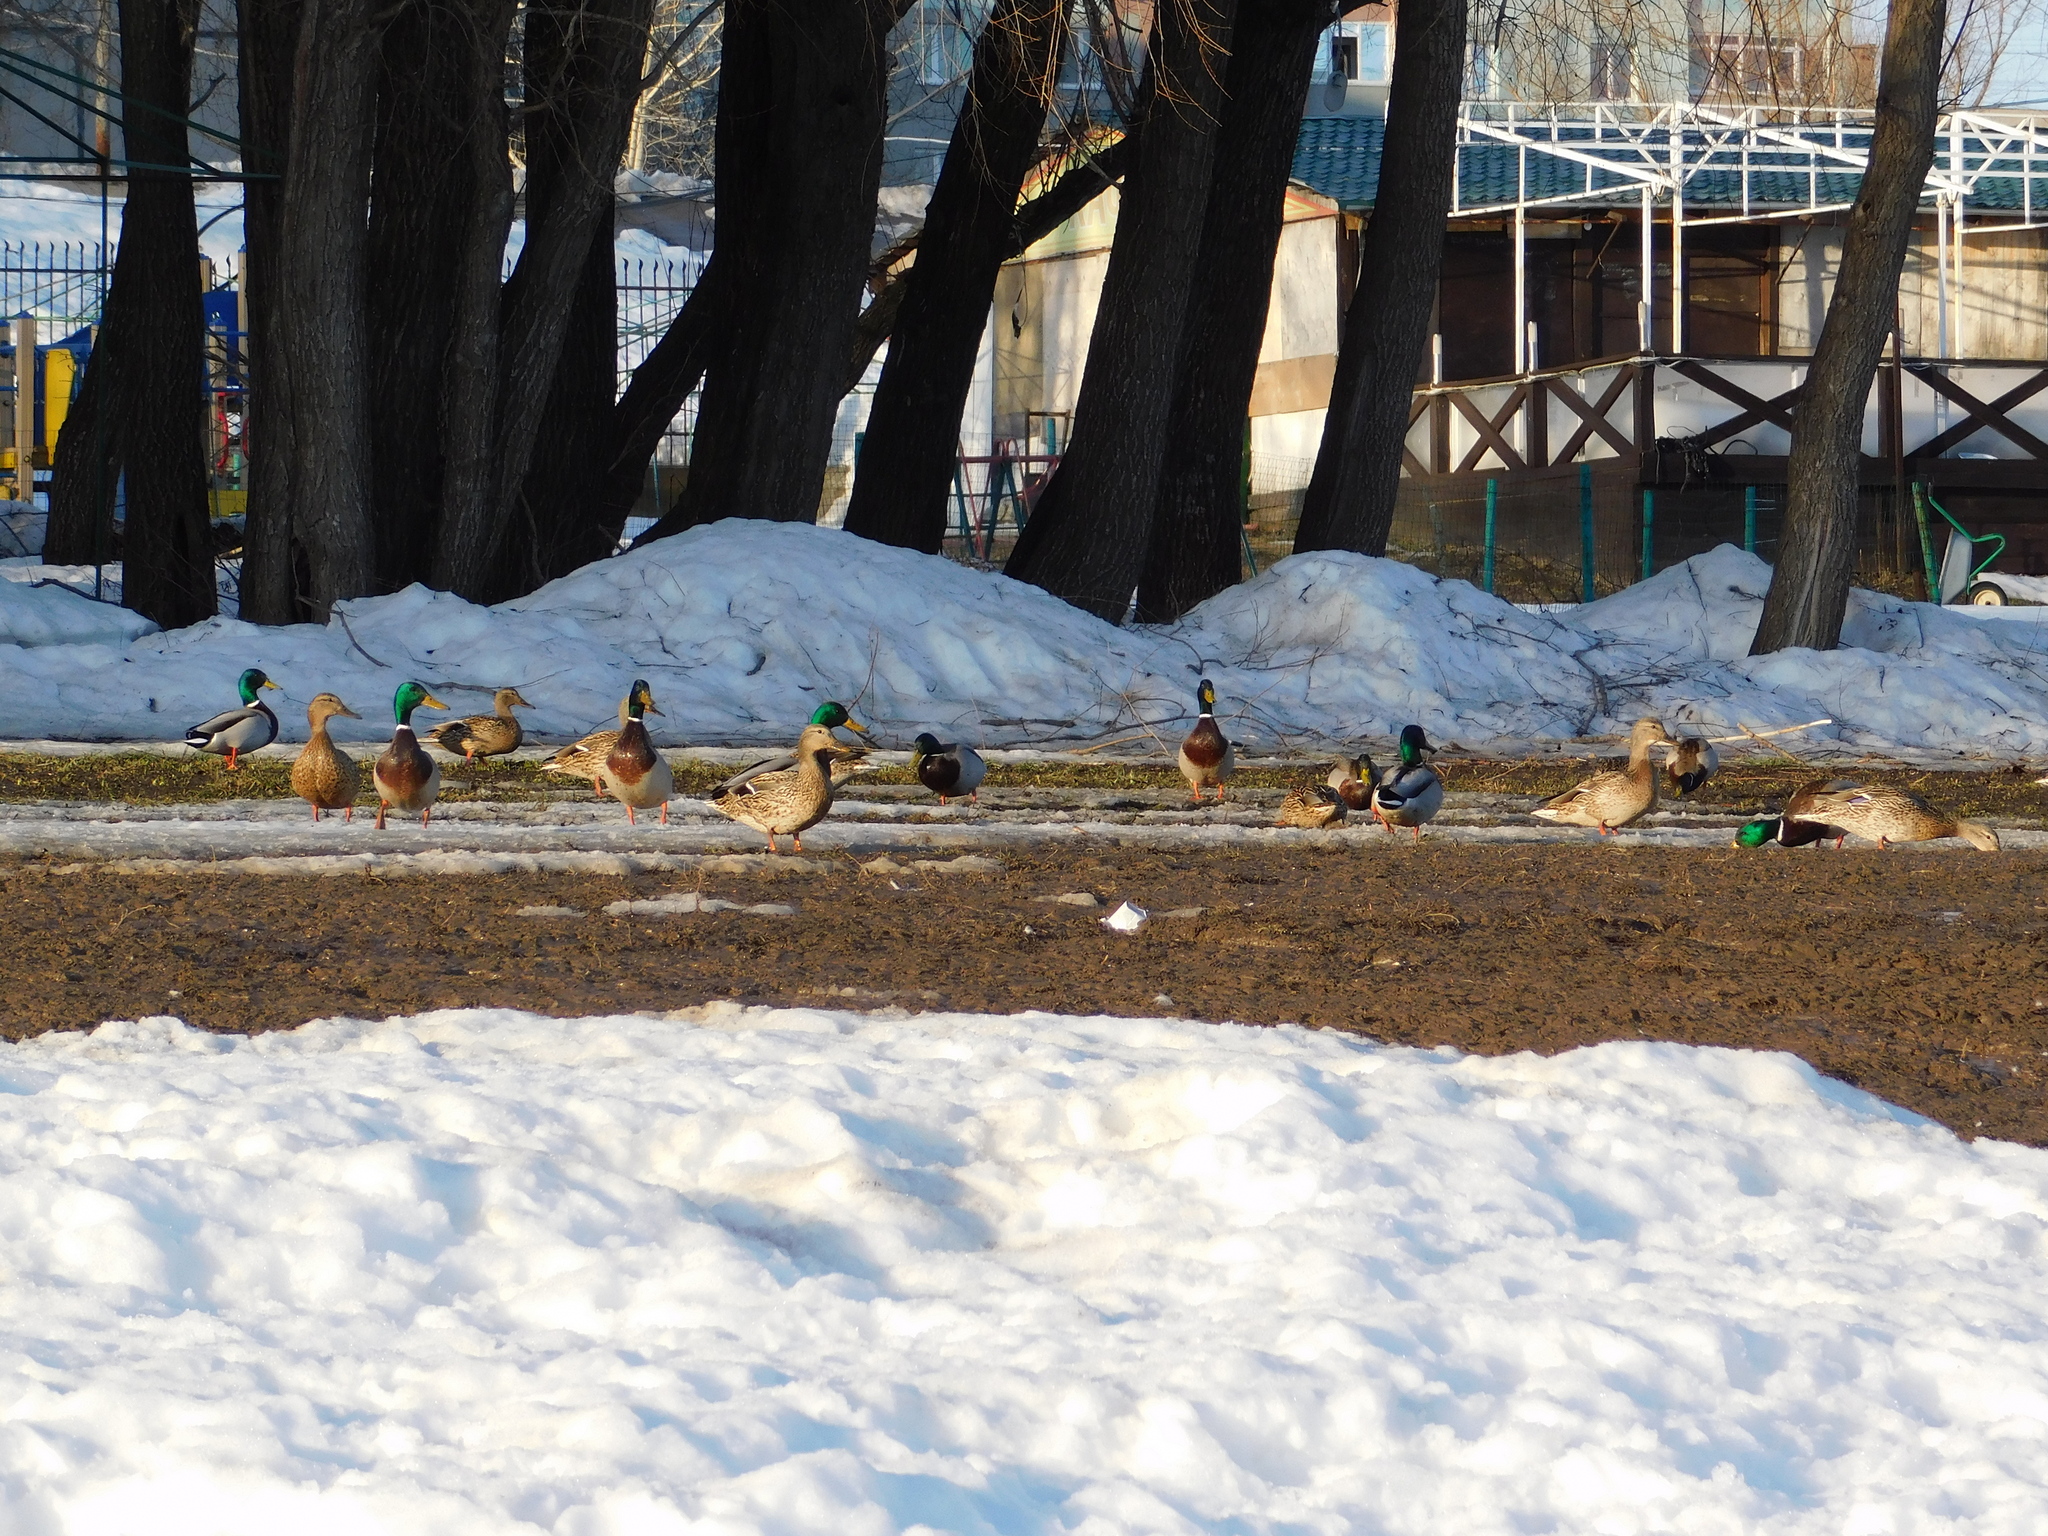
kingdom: Animalia
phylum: Chordata
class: Aves
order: Anseriformes
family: Anatidae
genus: Anas
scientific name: Anas platyrhynchos
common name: Mallard
